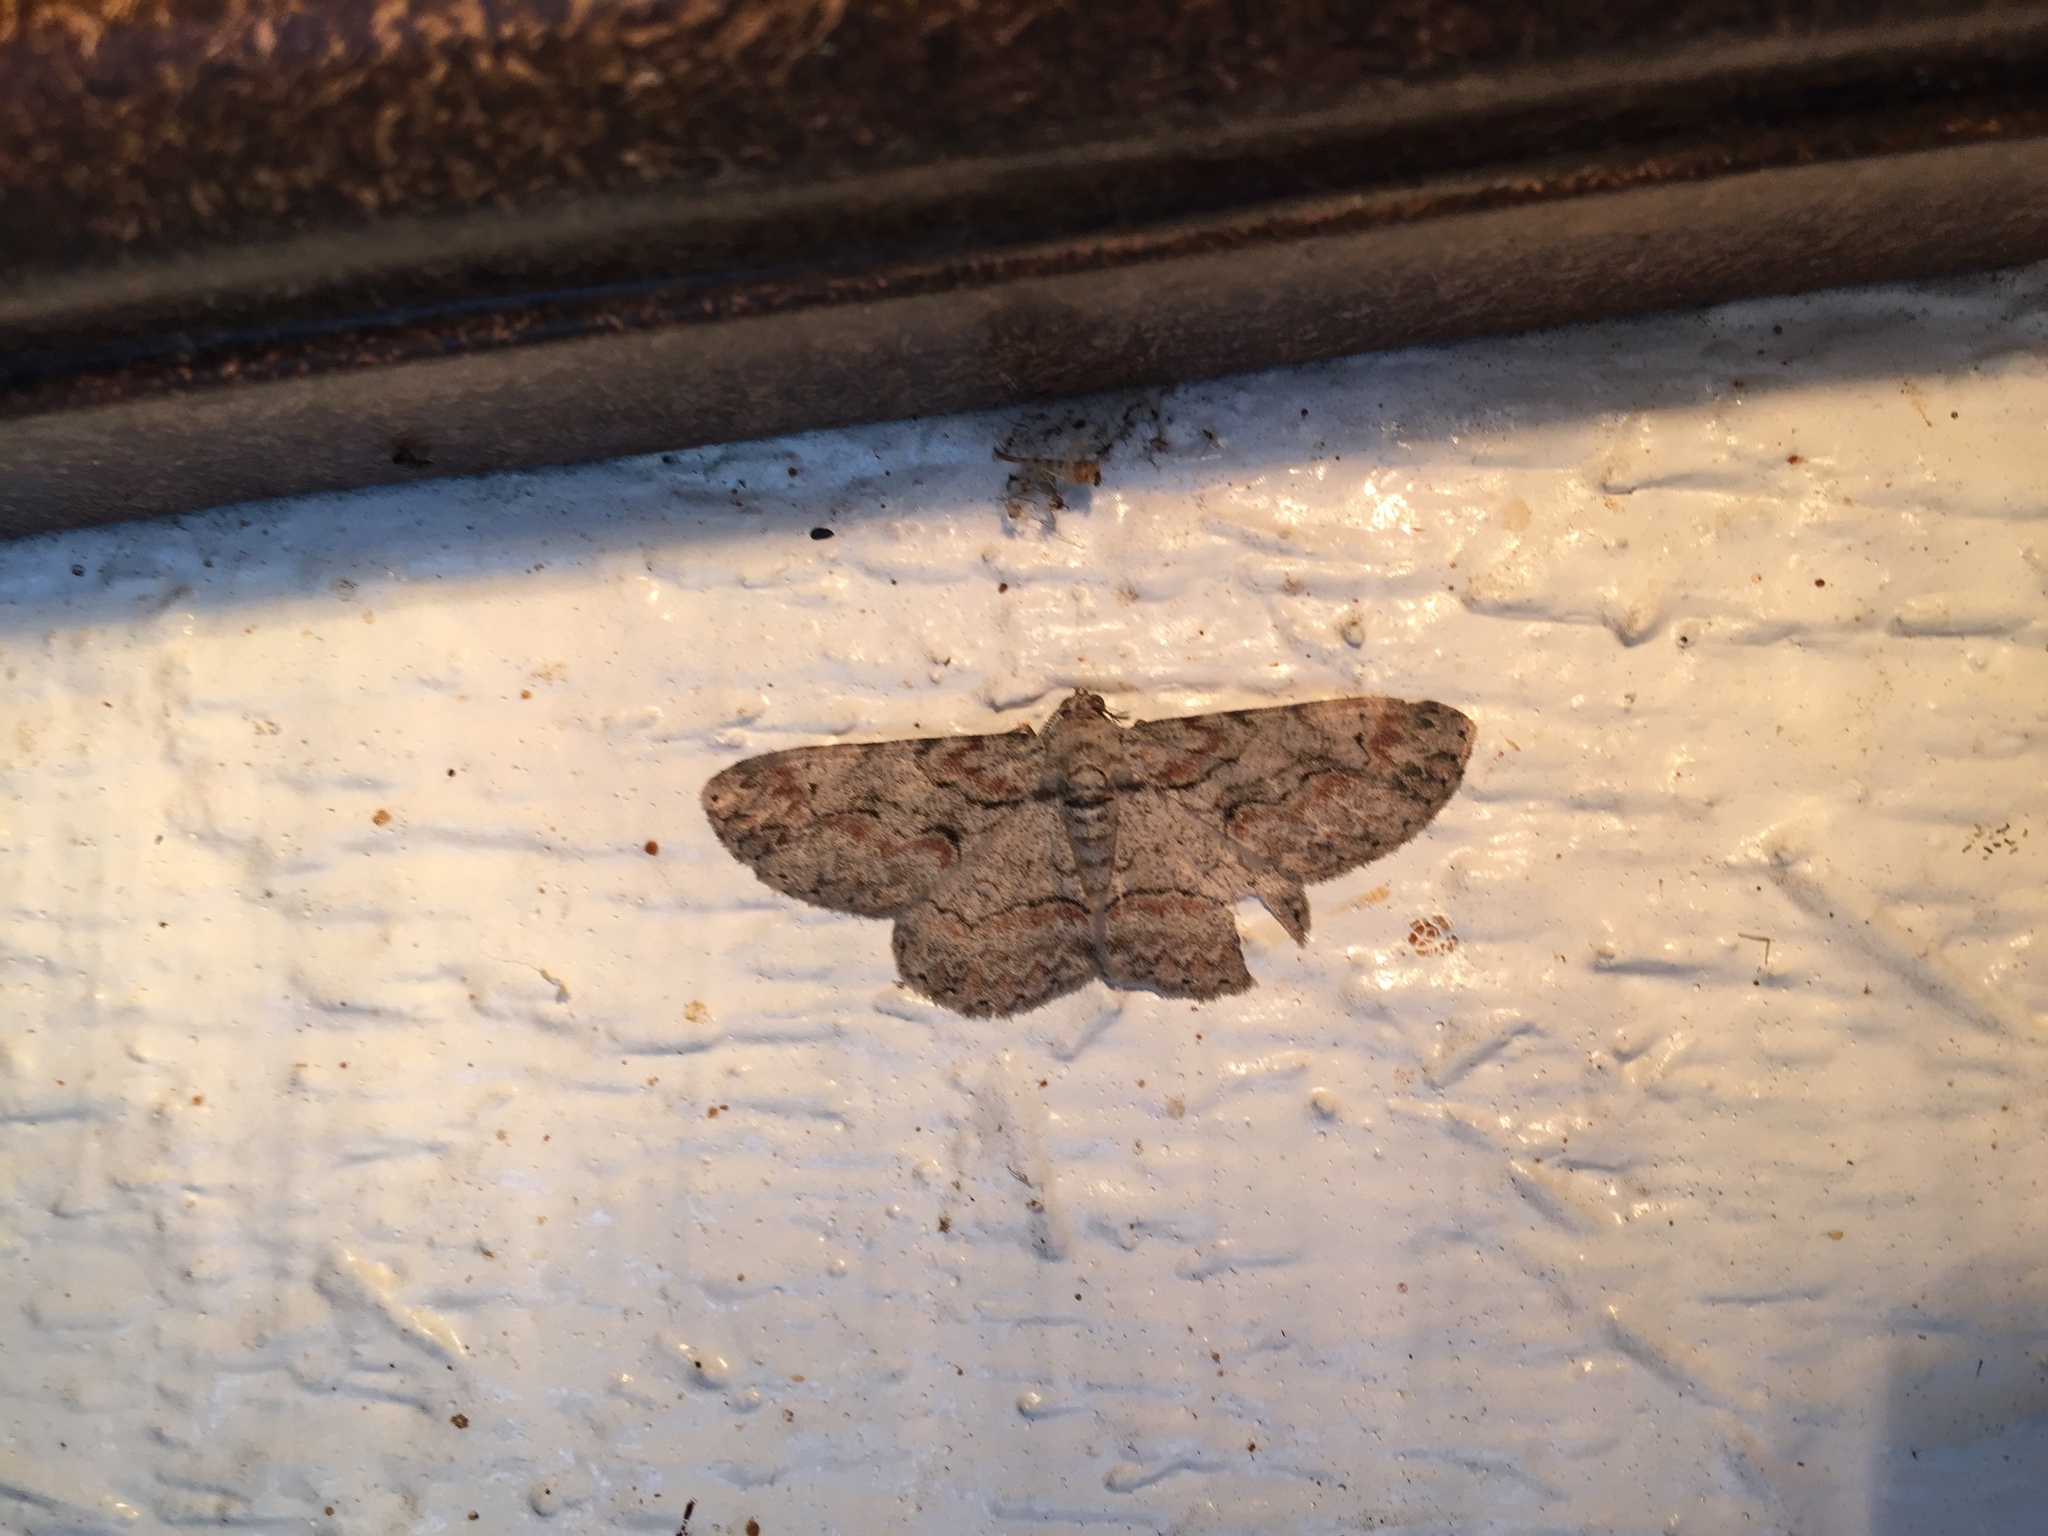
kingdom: Animalia
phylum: Arthropoda
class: Insecta
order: Lepidoptera
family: Geometridae
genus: Iridopsis
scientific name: Iridopsis defectaria
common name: Brown-shaded gray
